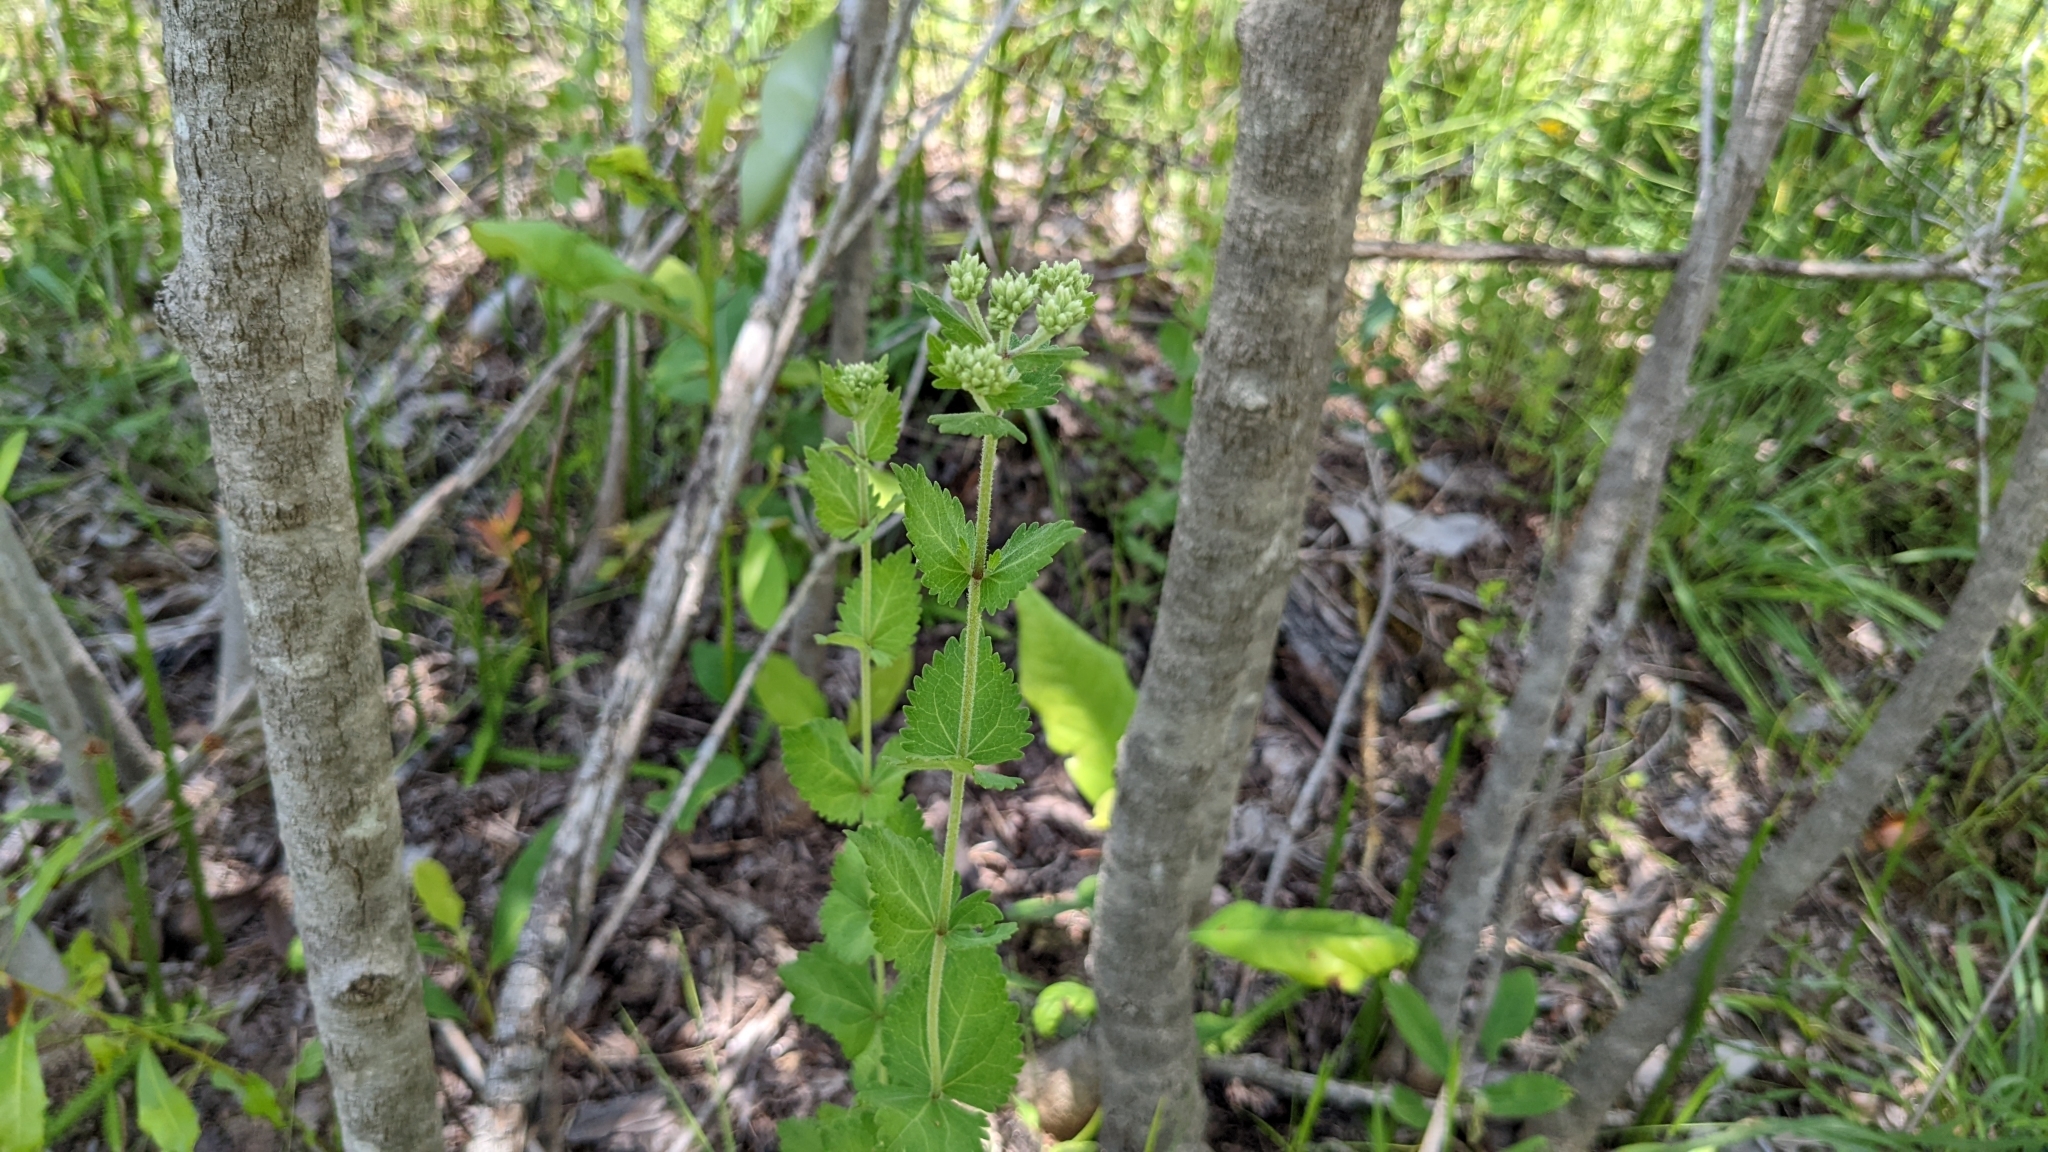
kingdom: Plantae
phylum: Tracheophyta
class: Magnoliopsida
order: Asterales
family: Asteraceae
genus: Eupatorium
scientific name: Eupatorium rotundifolium
